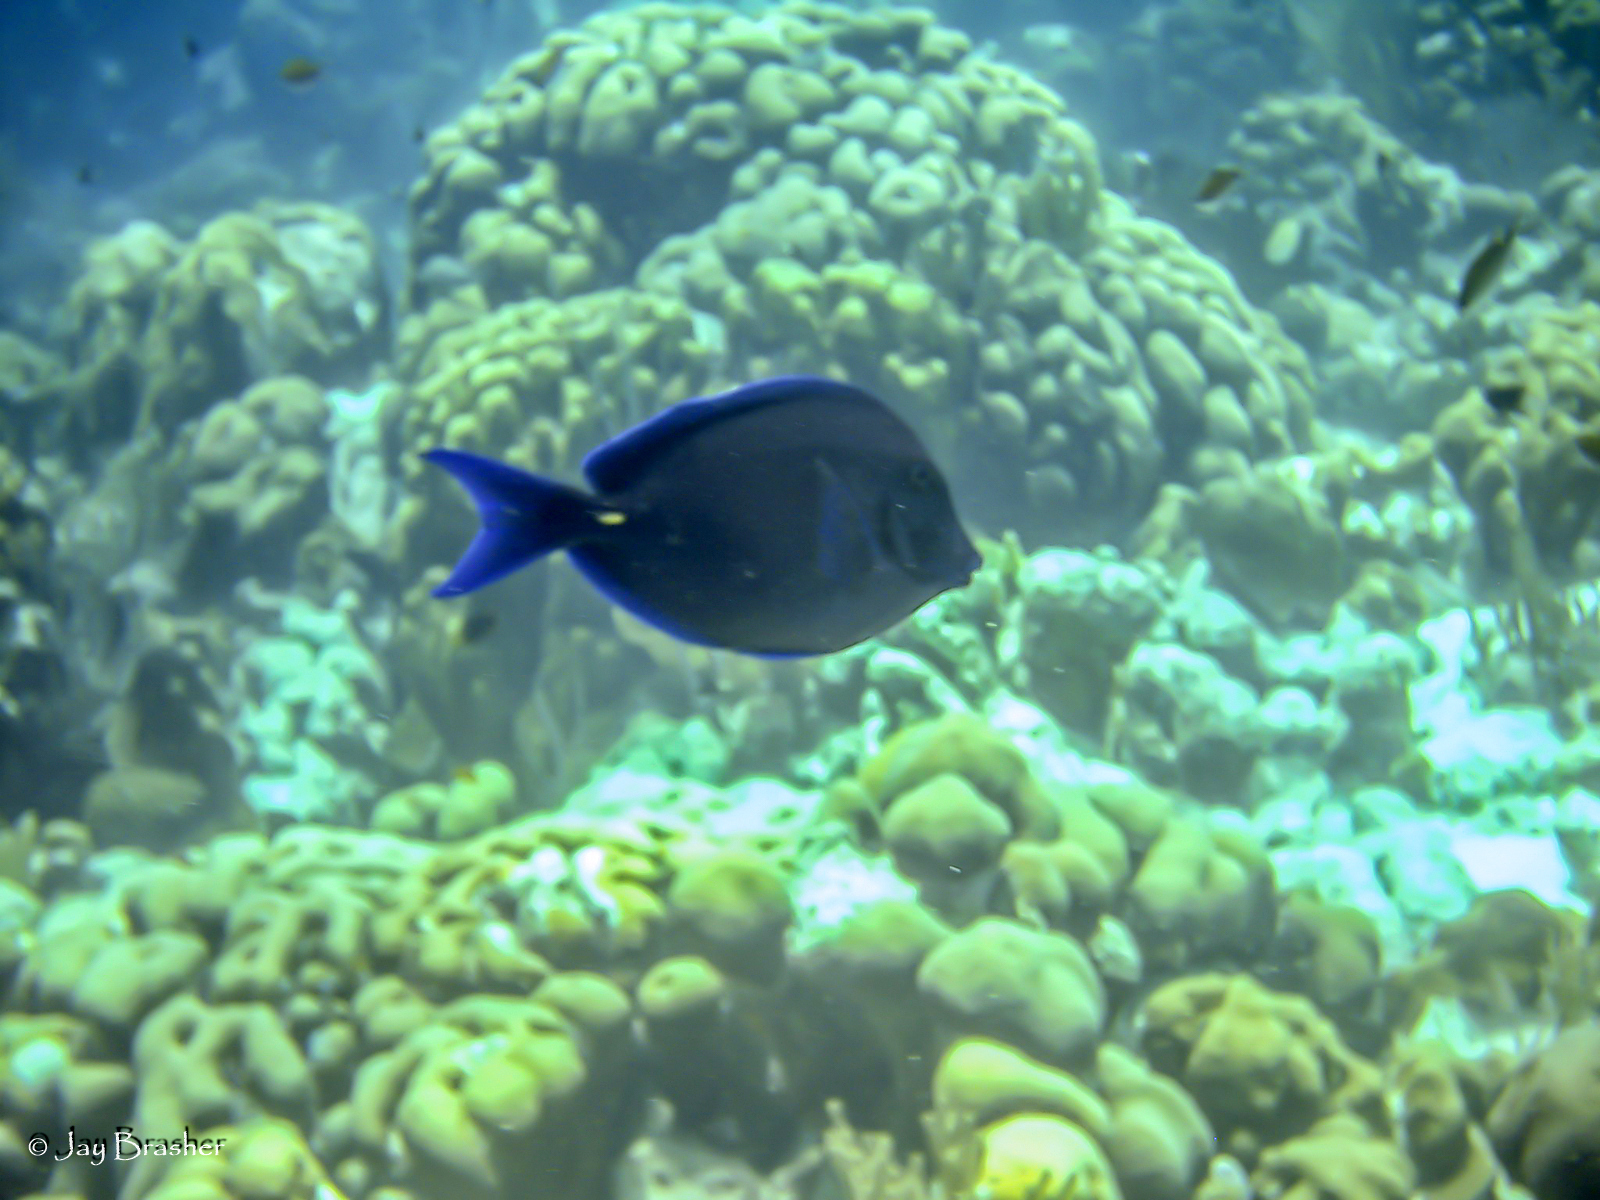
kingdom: Animalia
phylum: Chordata
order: Perciformes
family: Acanthuridae
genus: Acanthurus
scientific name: Acanthurus coeruleus
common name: Blue tang
